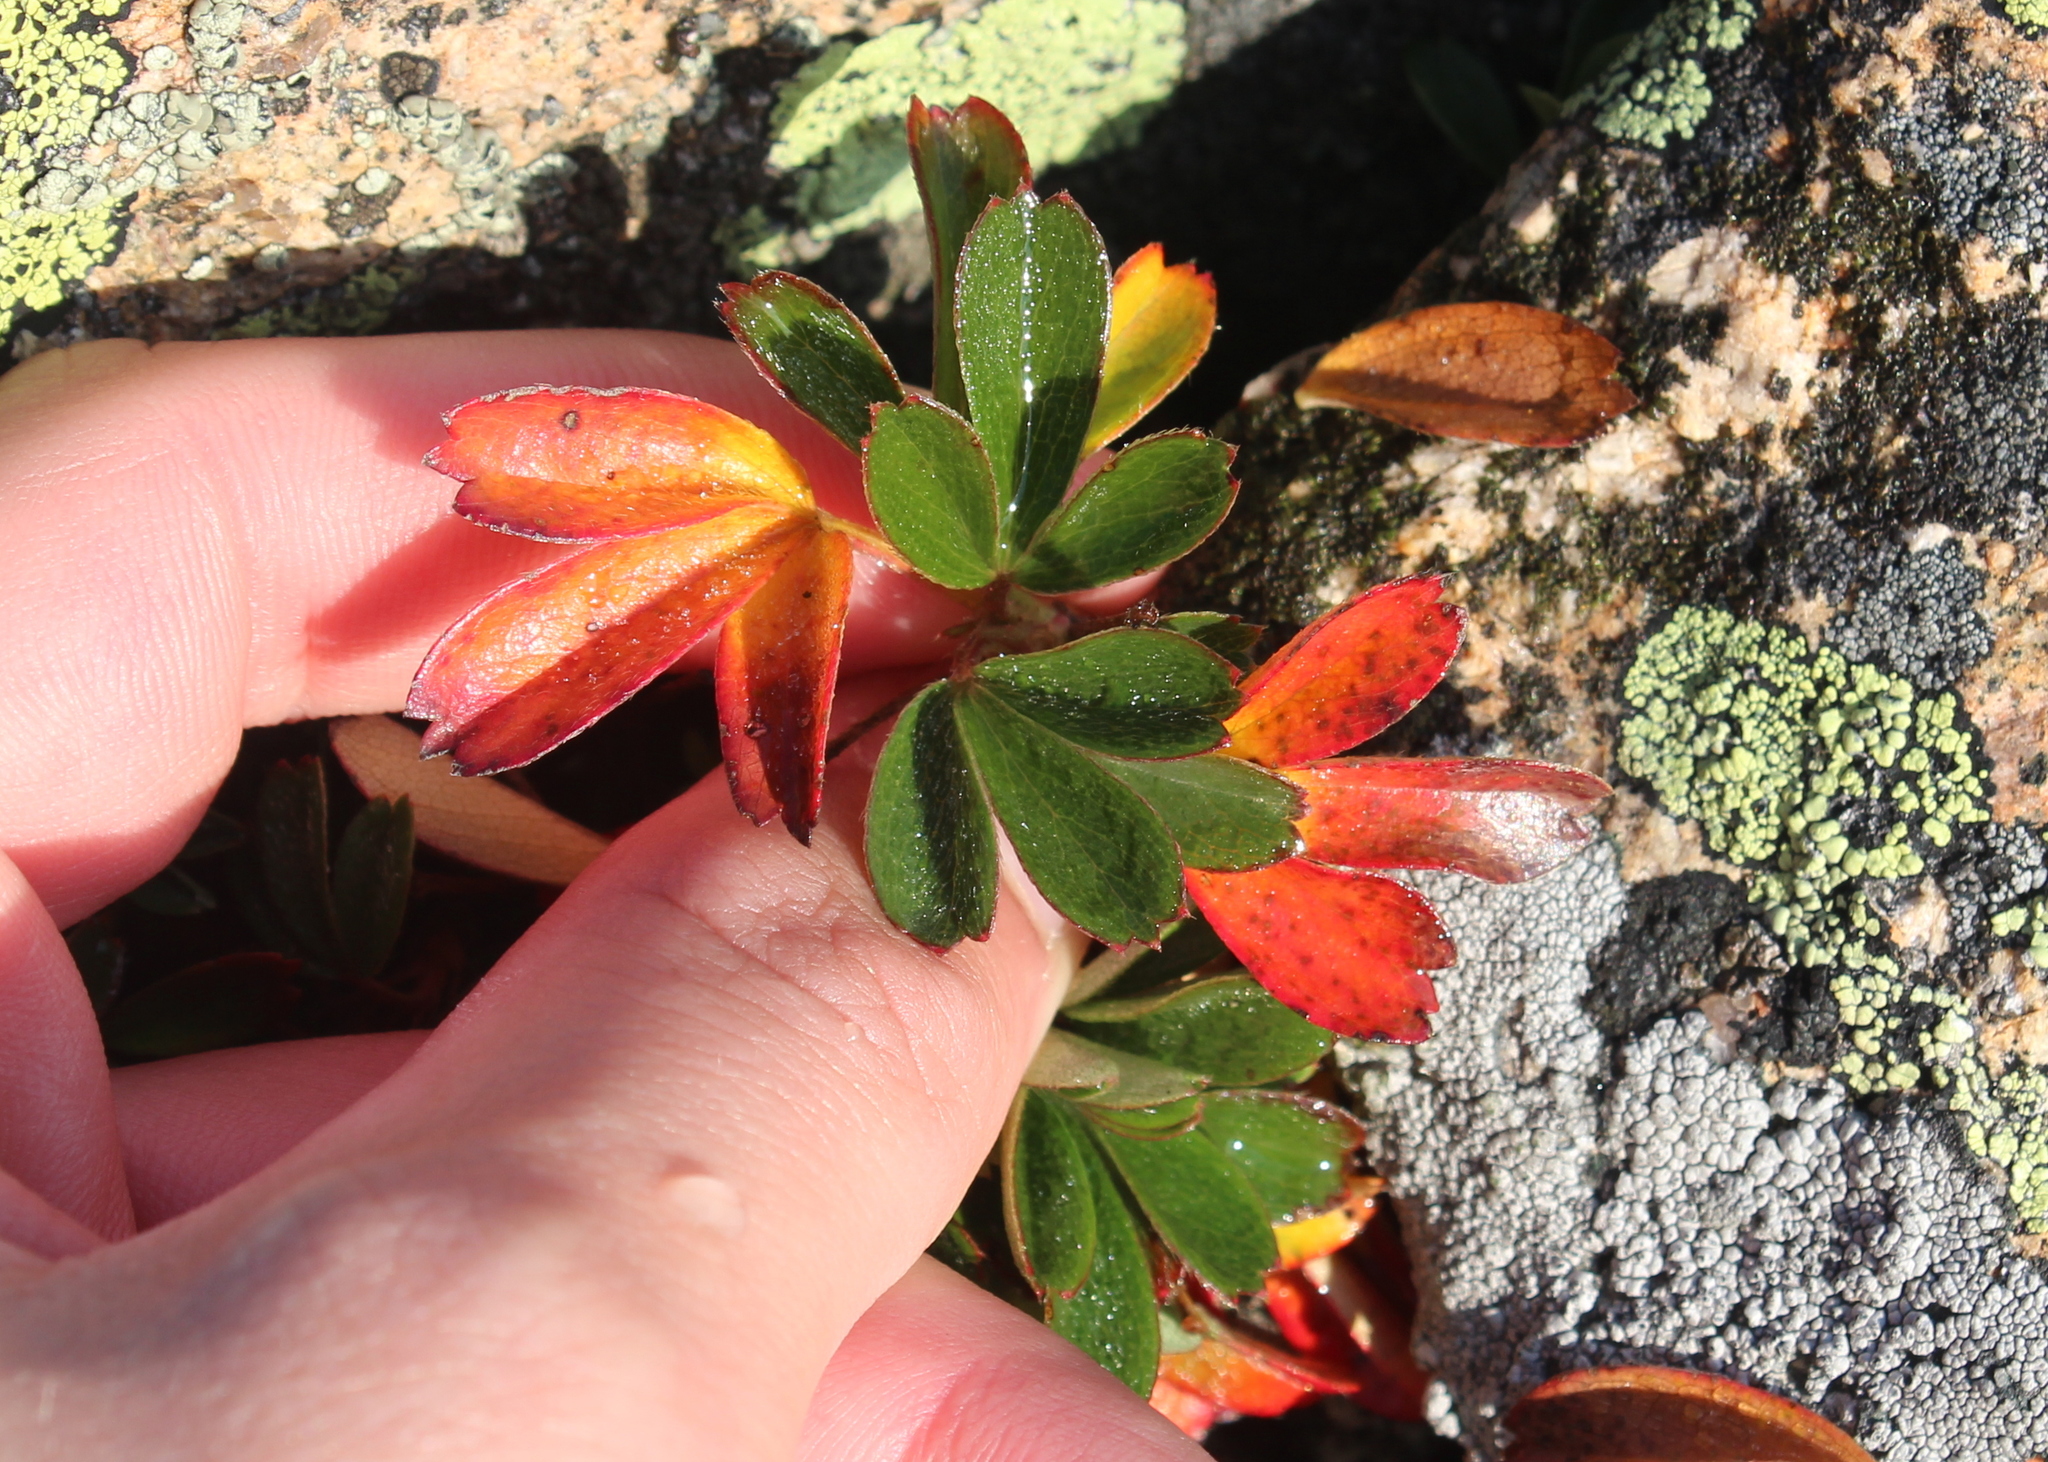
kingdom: Plantae
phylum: Tracheophyta
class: Magnoliopsida
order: Rosales
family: Rosaceae
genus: Sibbaldia
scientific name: Sibbaldia tridentata
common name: Three-toothed cinquefoil
